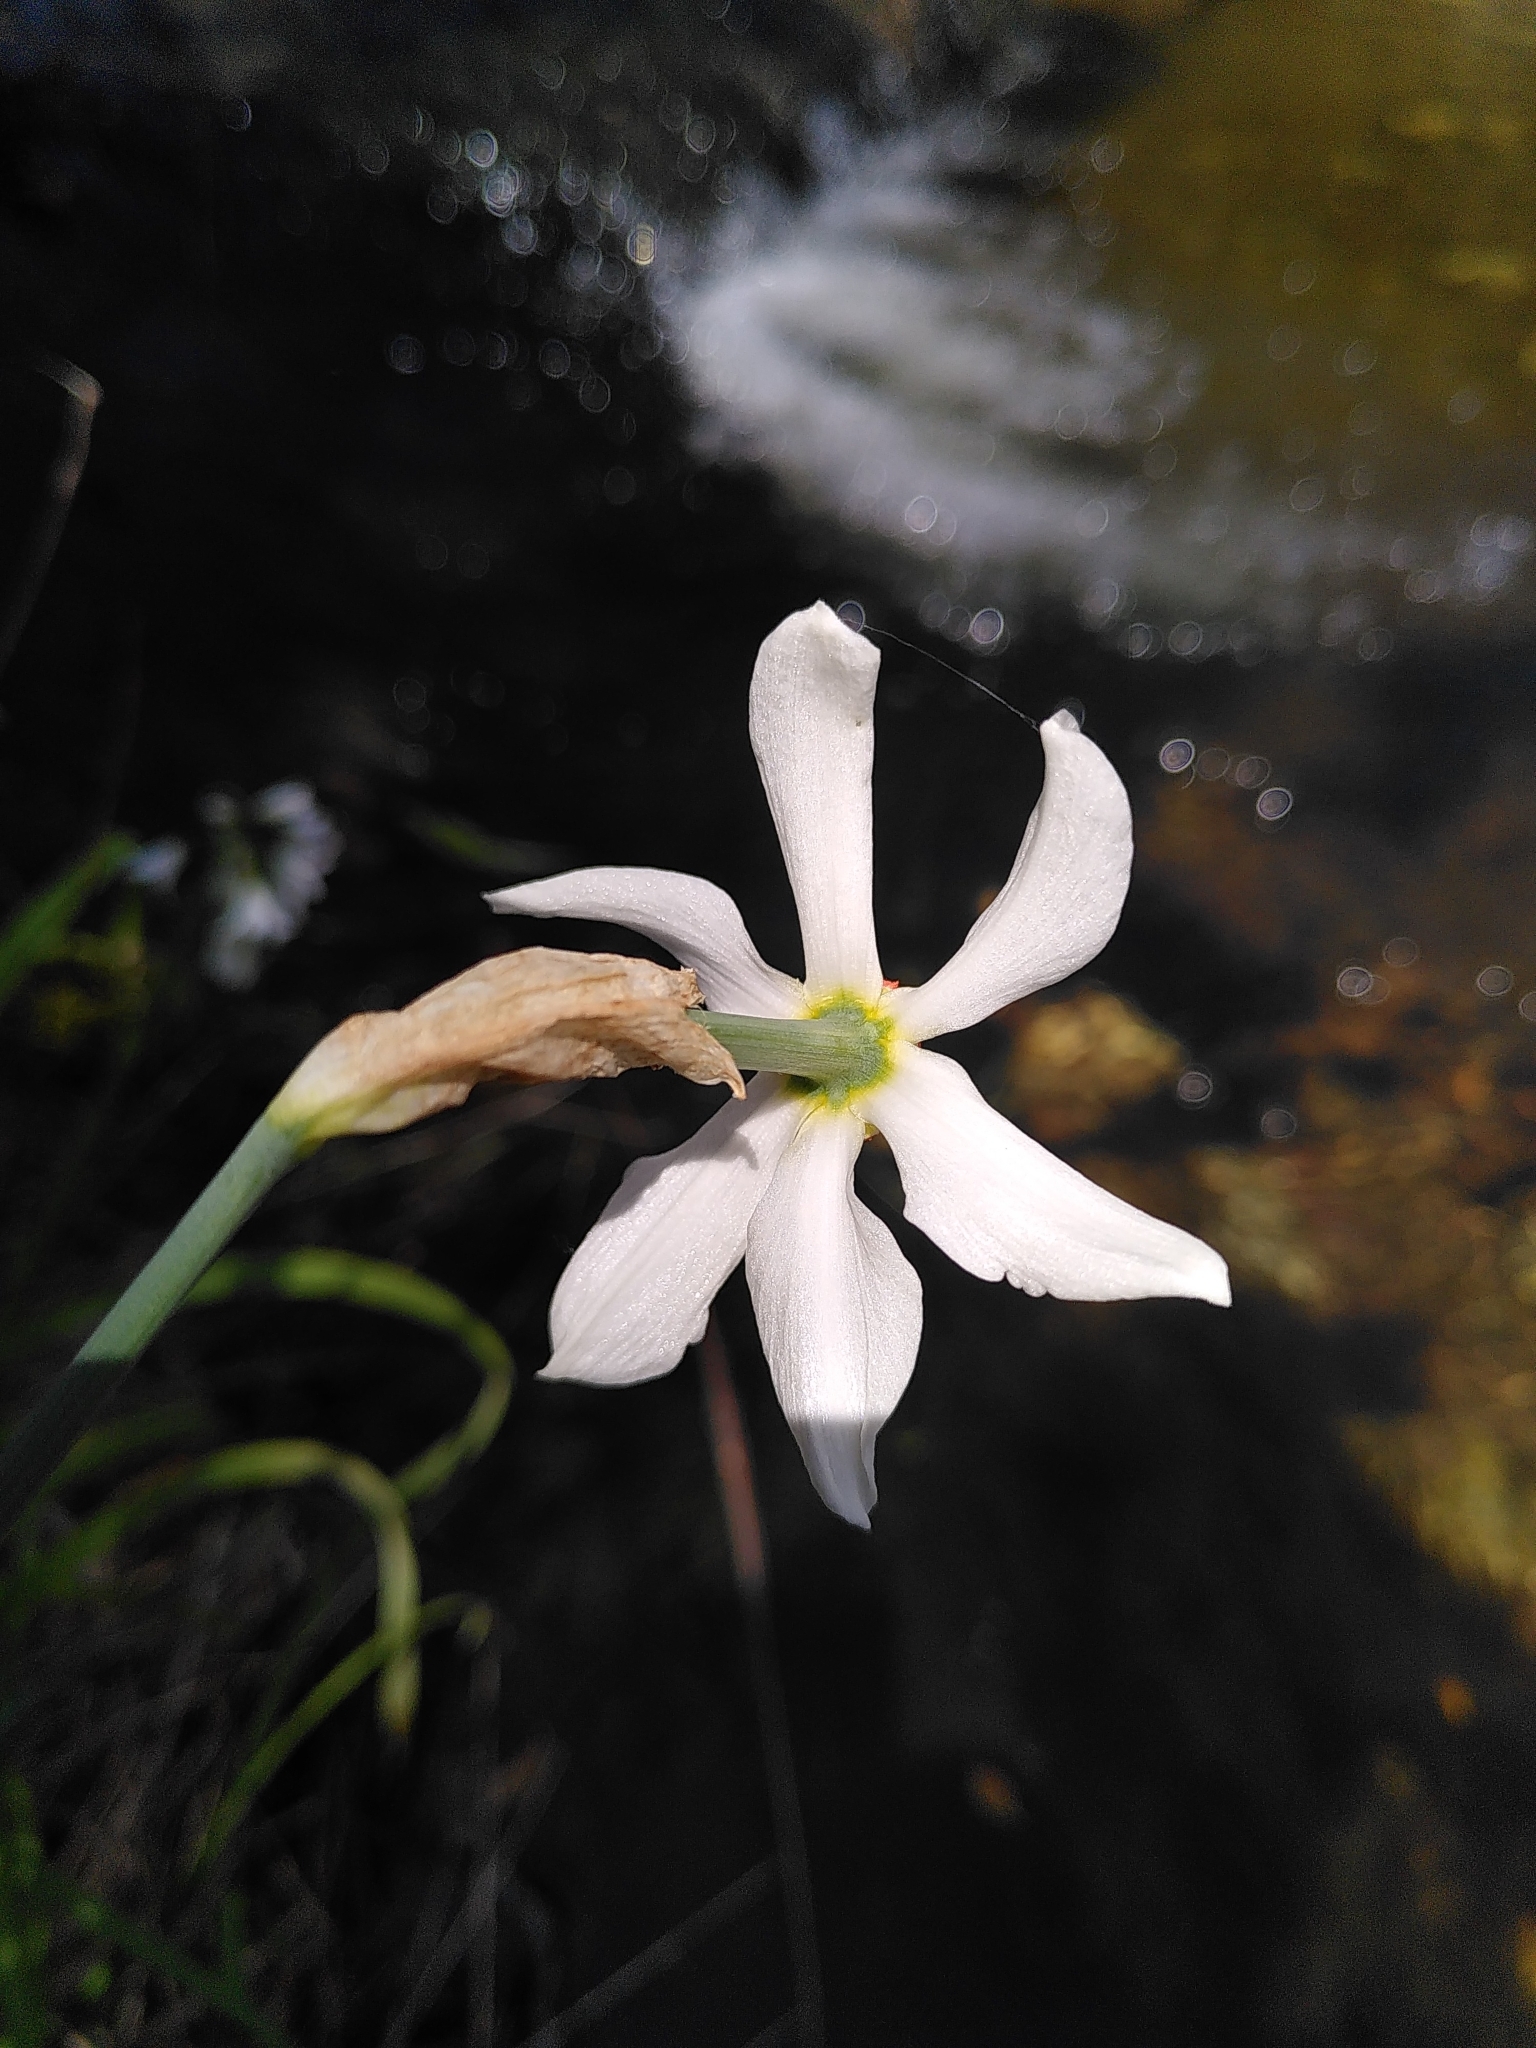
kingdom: Plantae
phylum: Tracheophyta
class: Liliopsida
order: Asparagales
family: Amaryllidaceae
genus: Narcissus
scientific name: Narcissus poeticus
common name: Pheasant's-eye daffodil
